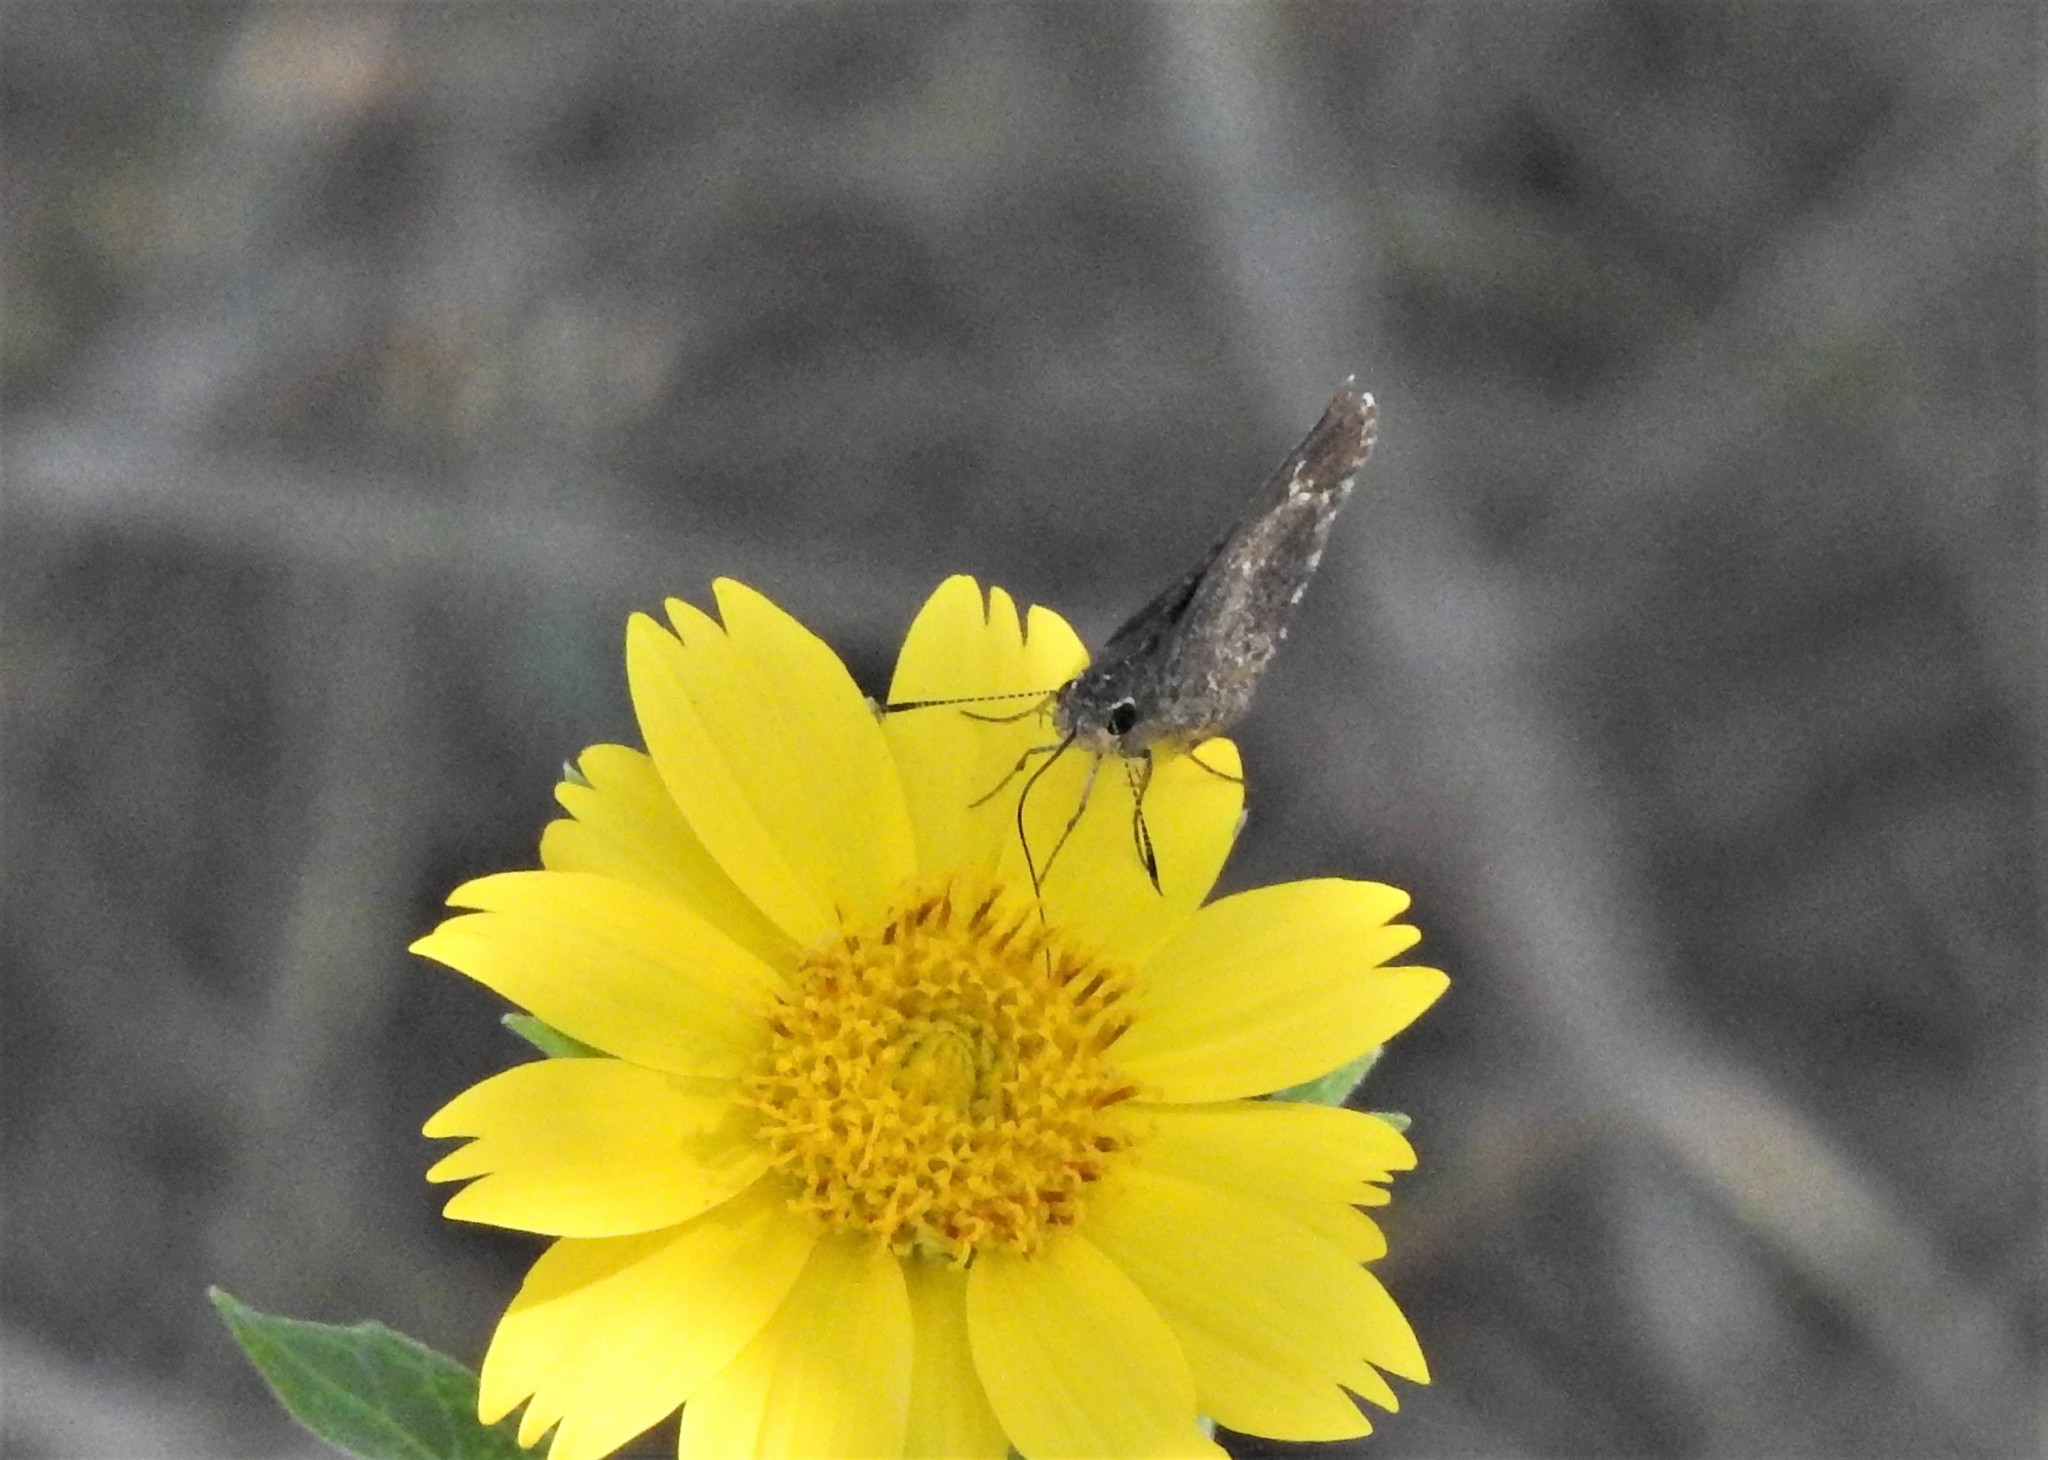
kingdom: Animalia
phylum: Arthropoda
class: Insecta
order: Lepidoptera
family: Hesperiidae
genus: Mastor
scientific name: Mastor celia
